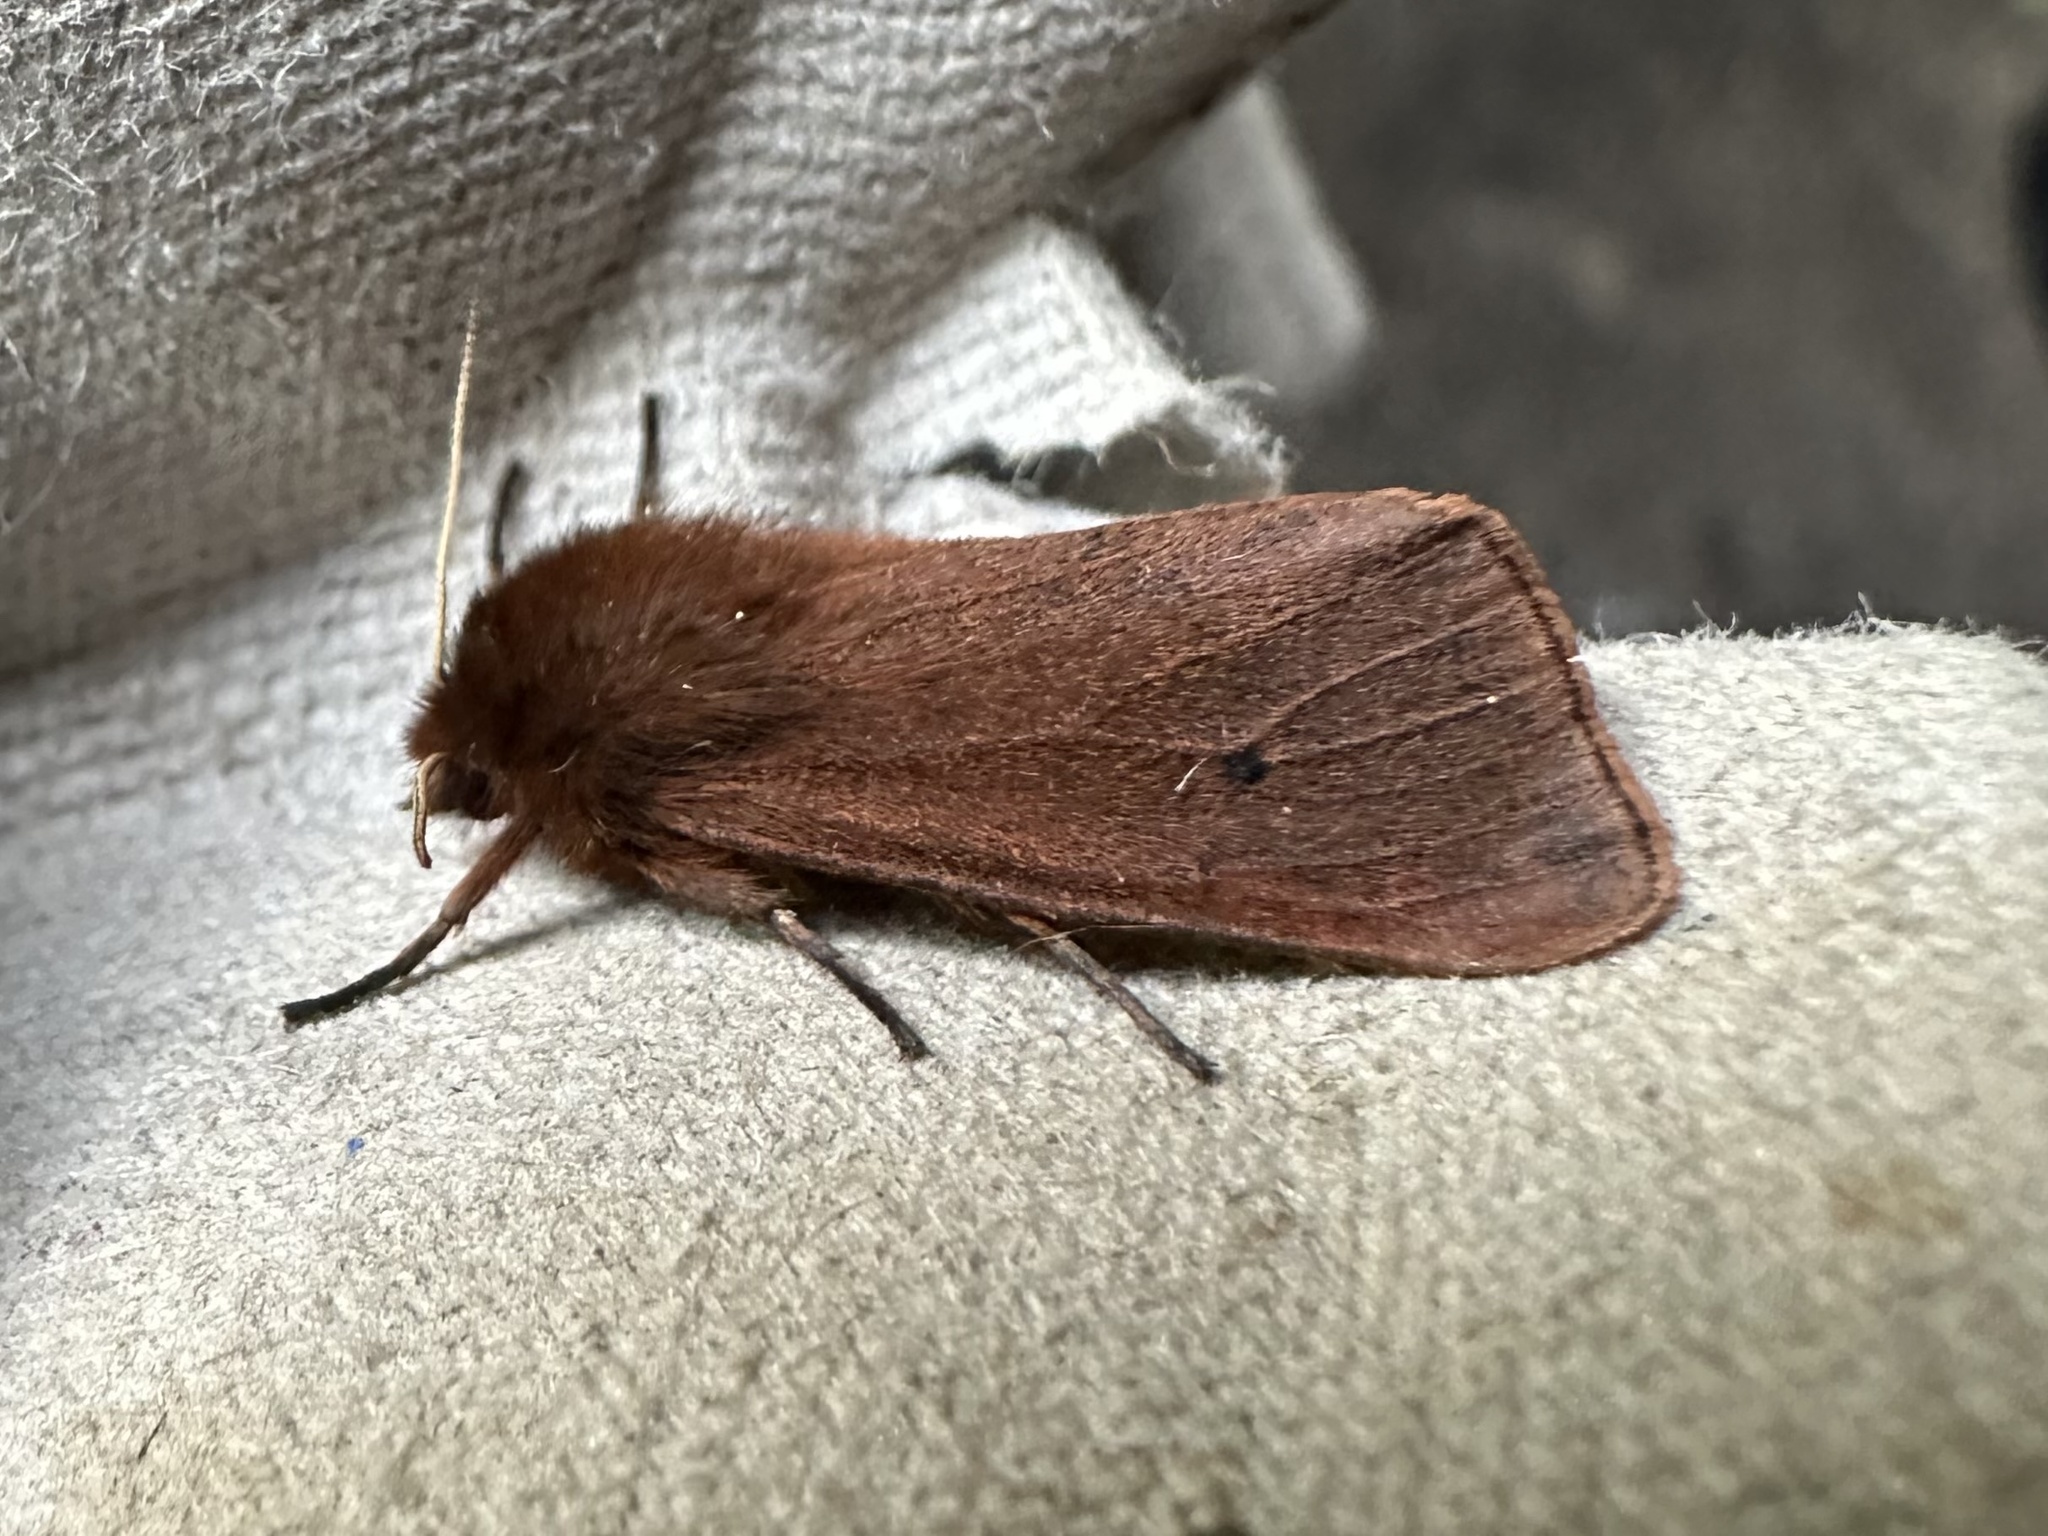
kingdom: Animalia
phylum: Arthropoda
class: Insecta
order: Lepidoptera
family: Erebidae
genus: Phragmatobia
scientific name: Phragmatobia fuliginosa
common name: Ruby tiger
